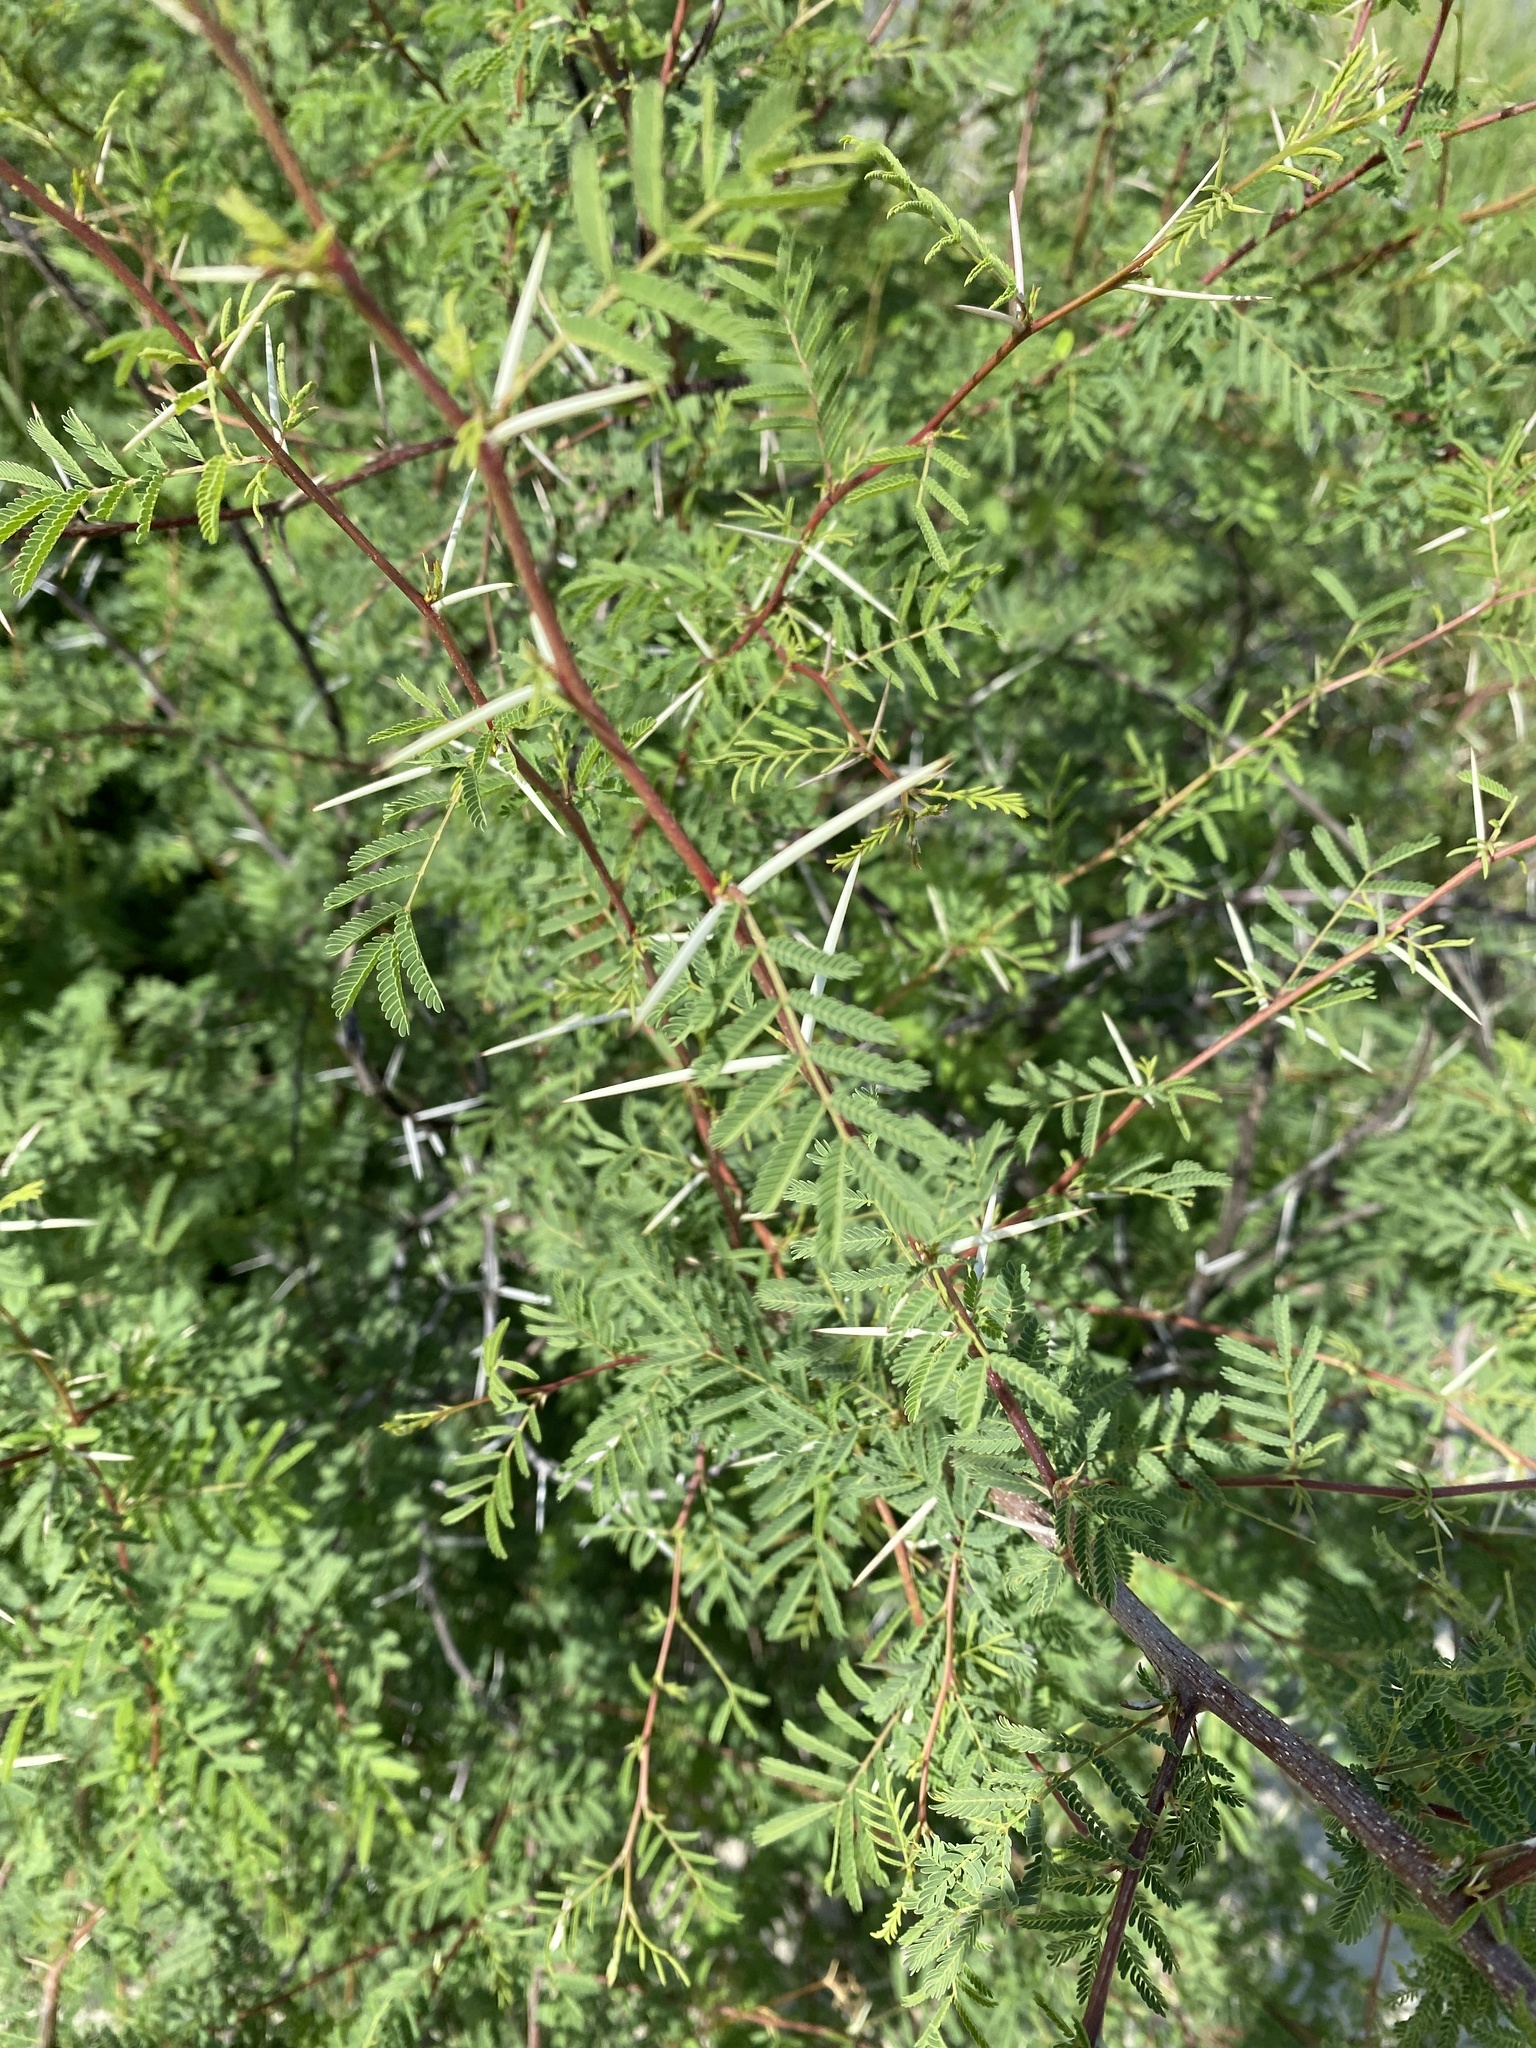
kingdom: Plantae
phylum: Tracheophyta
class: Magnoliopsida
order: Fabales
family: Fabaceae
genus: Vachellia
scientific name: Vachellia farnesiana
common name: Sweet acacia
